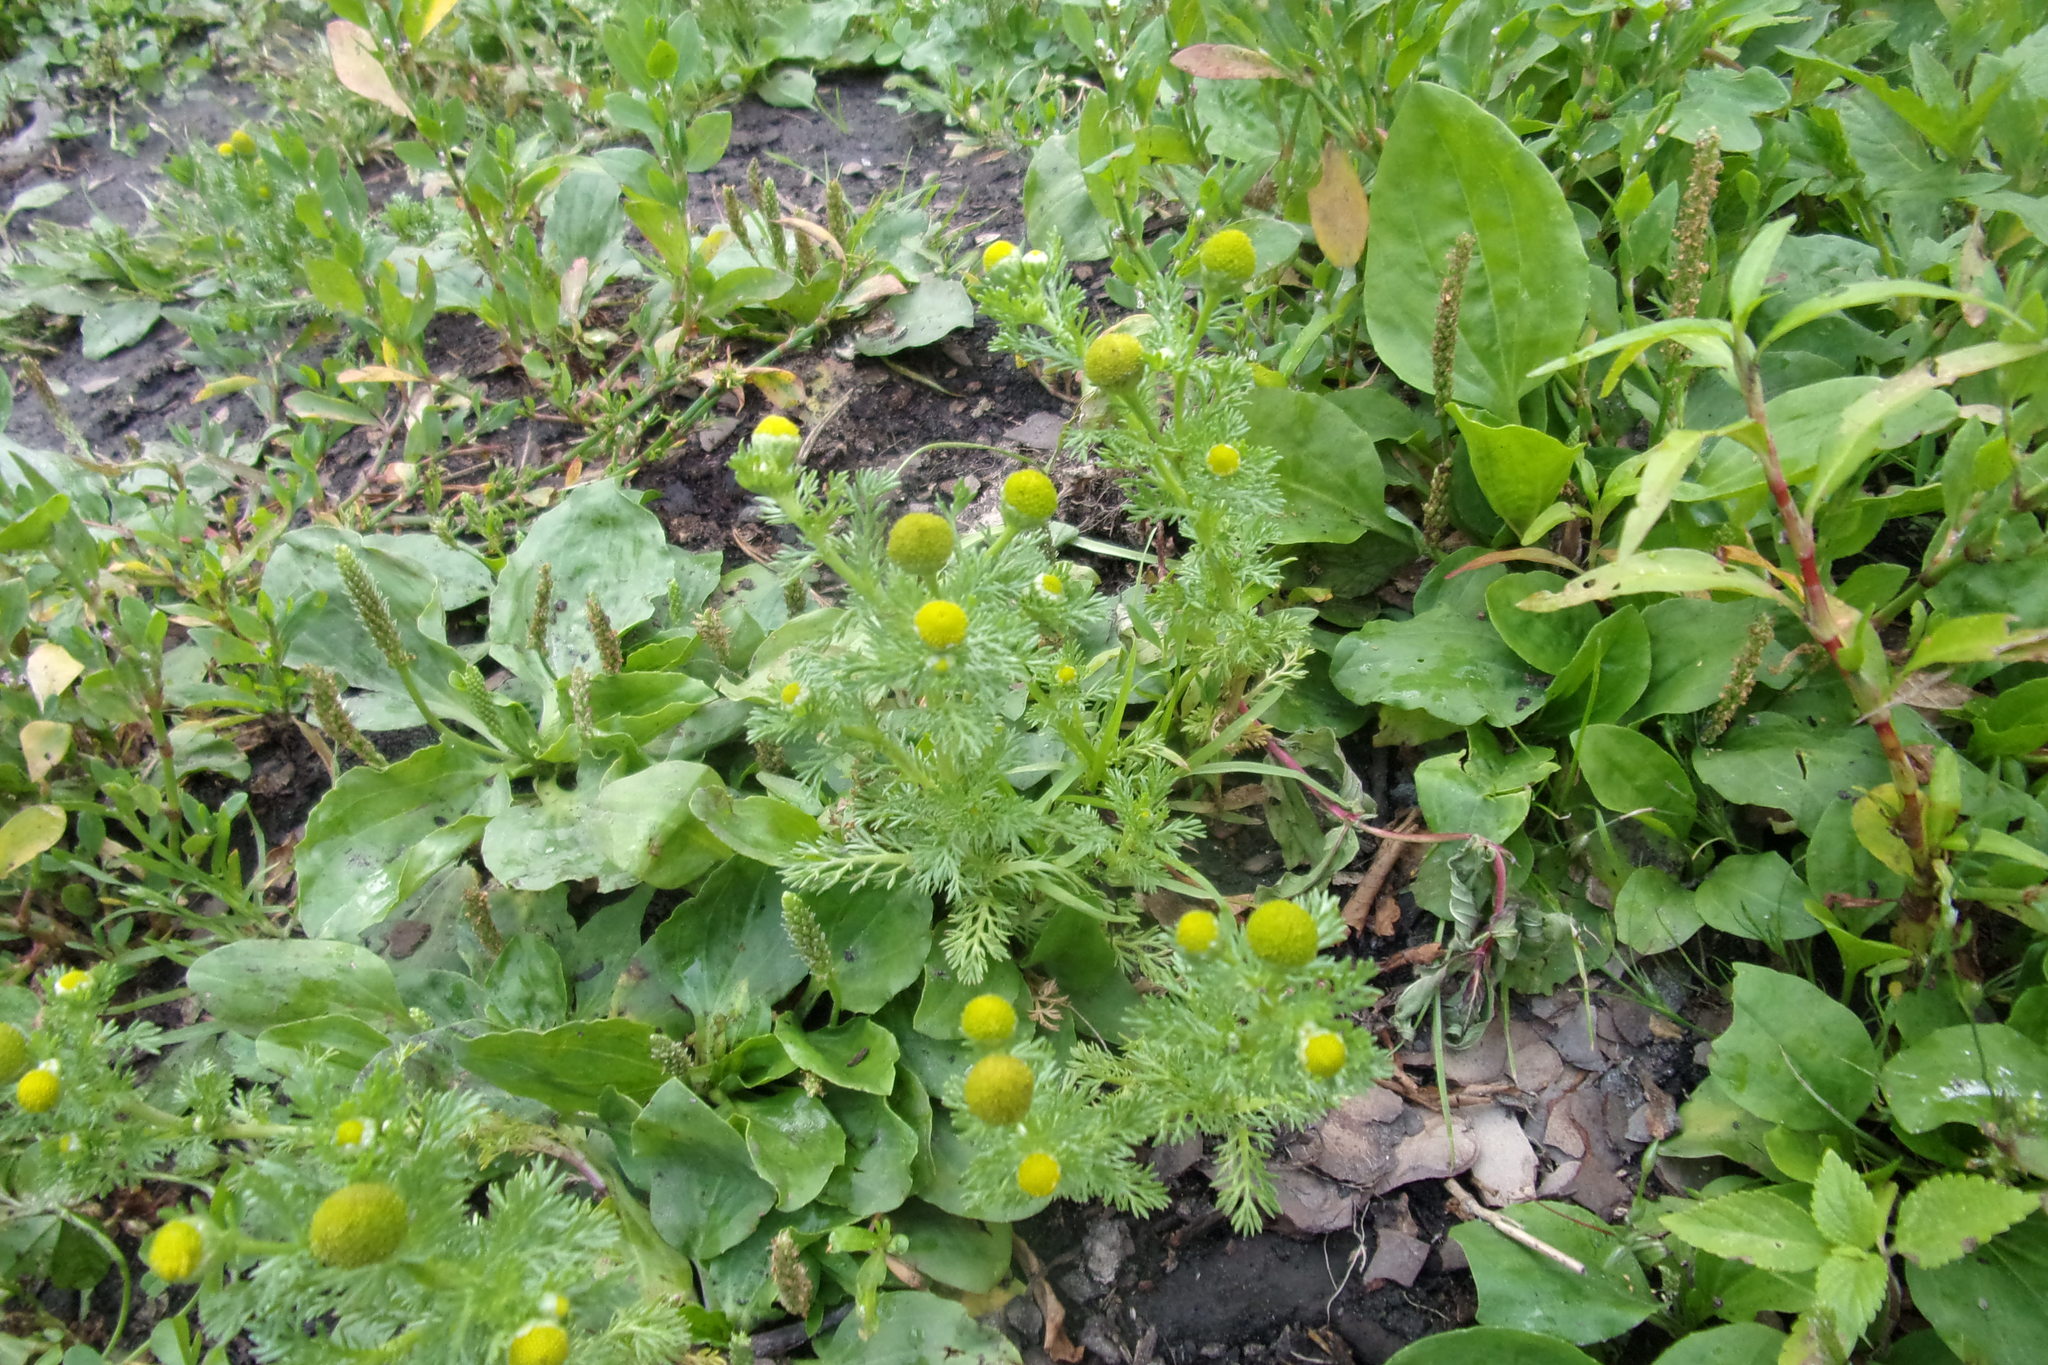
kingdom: Plantae
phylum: Tracheophyta
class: Magnoliopsida
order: Asterales
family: Asteraceae
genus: Matricaria
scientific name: Matricaria discoidea
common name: Disc mayweed
